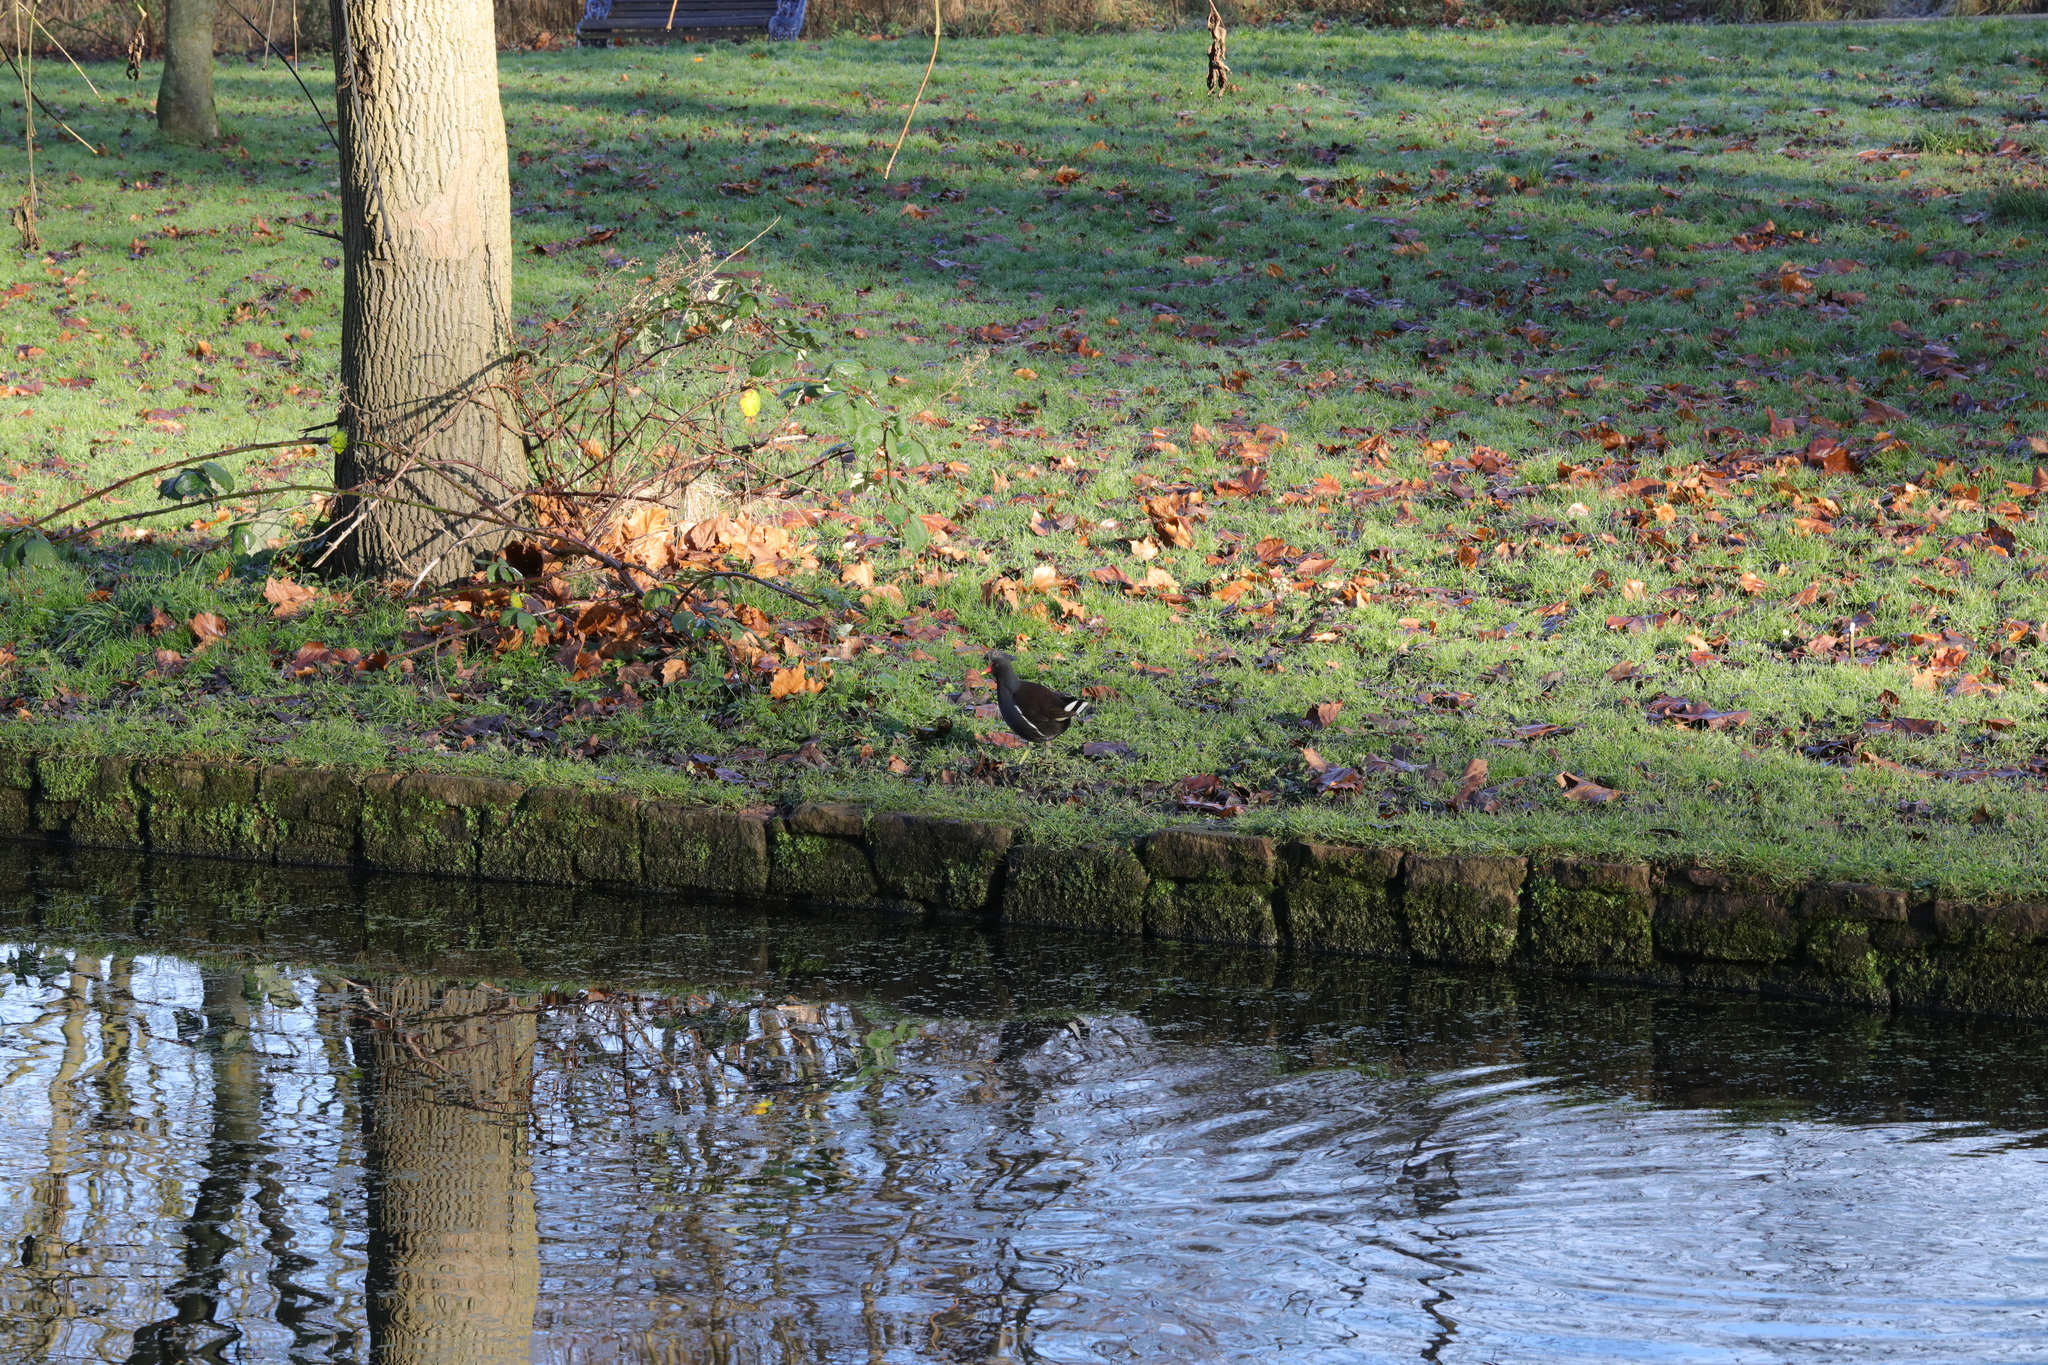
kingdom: Animalia
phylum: Chordata
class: Aves
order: Gruiformes
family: Rallidae
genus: Gallinula
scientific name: Gallinula chloropus
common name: Common moorhen
